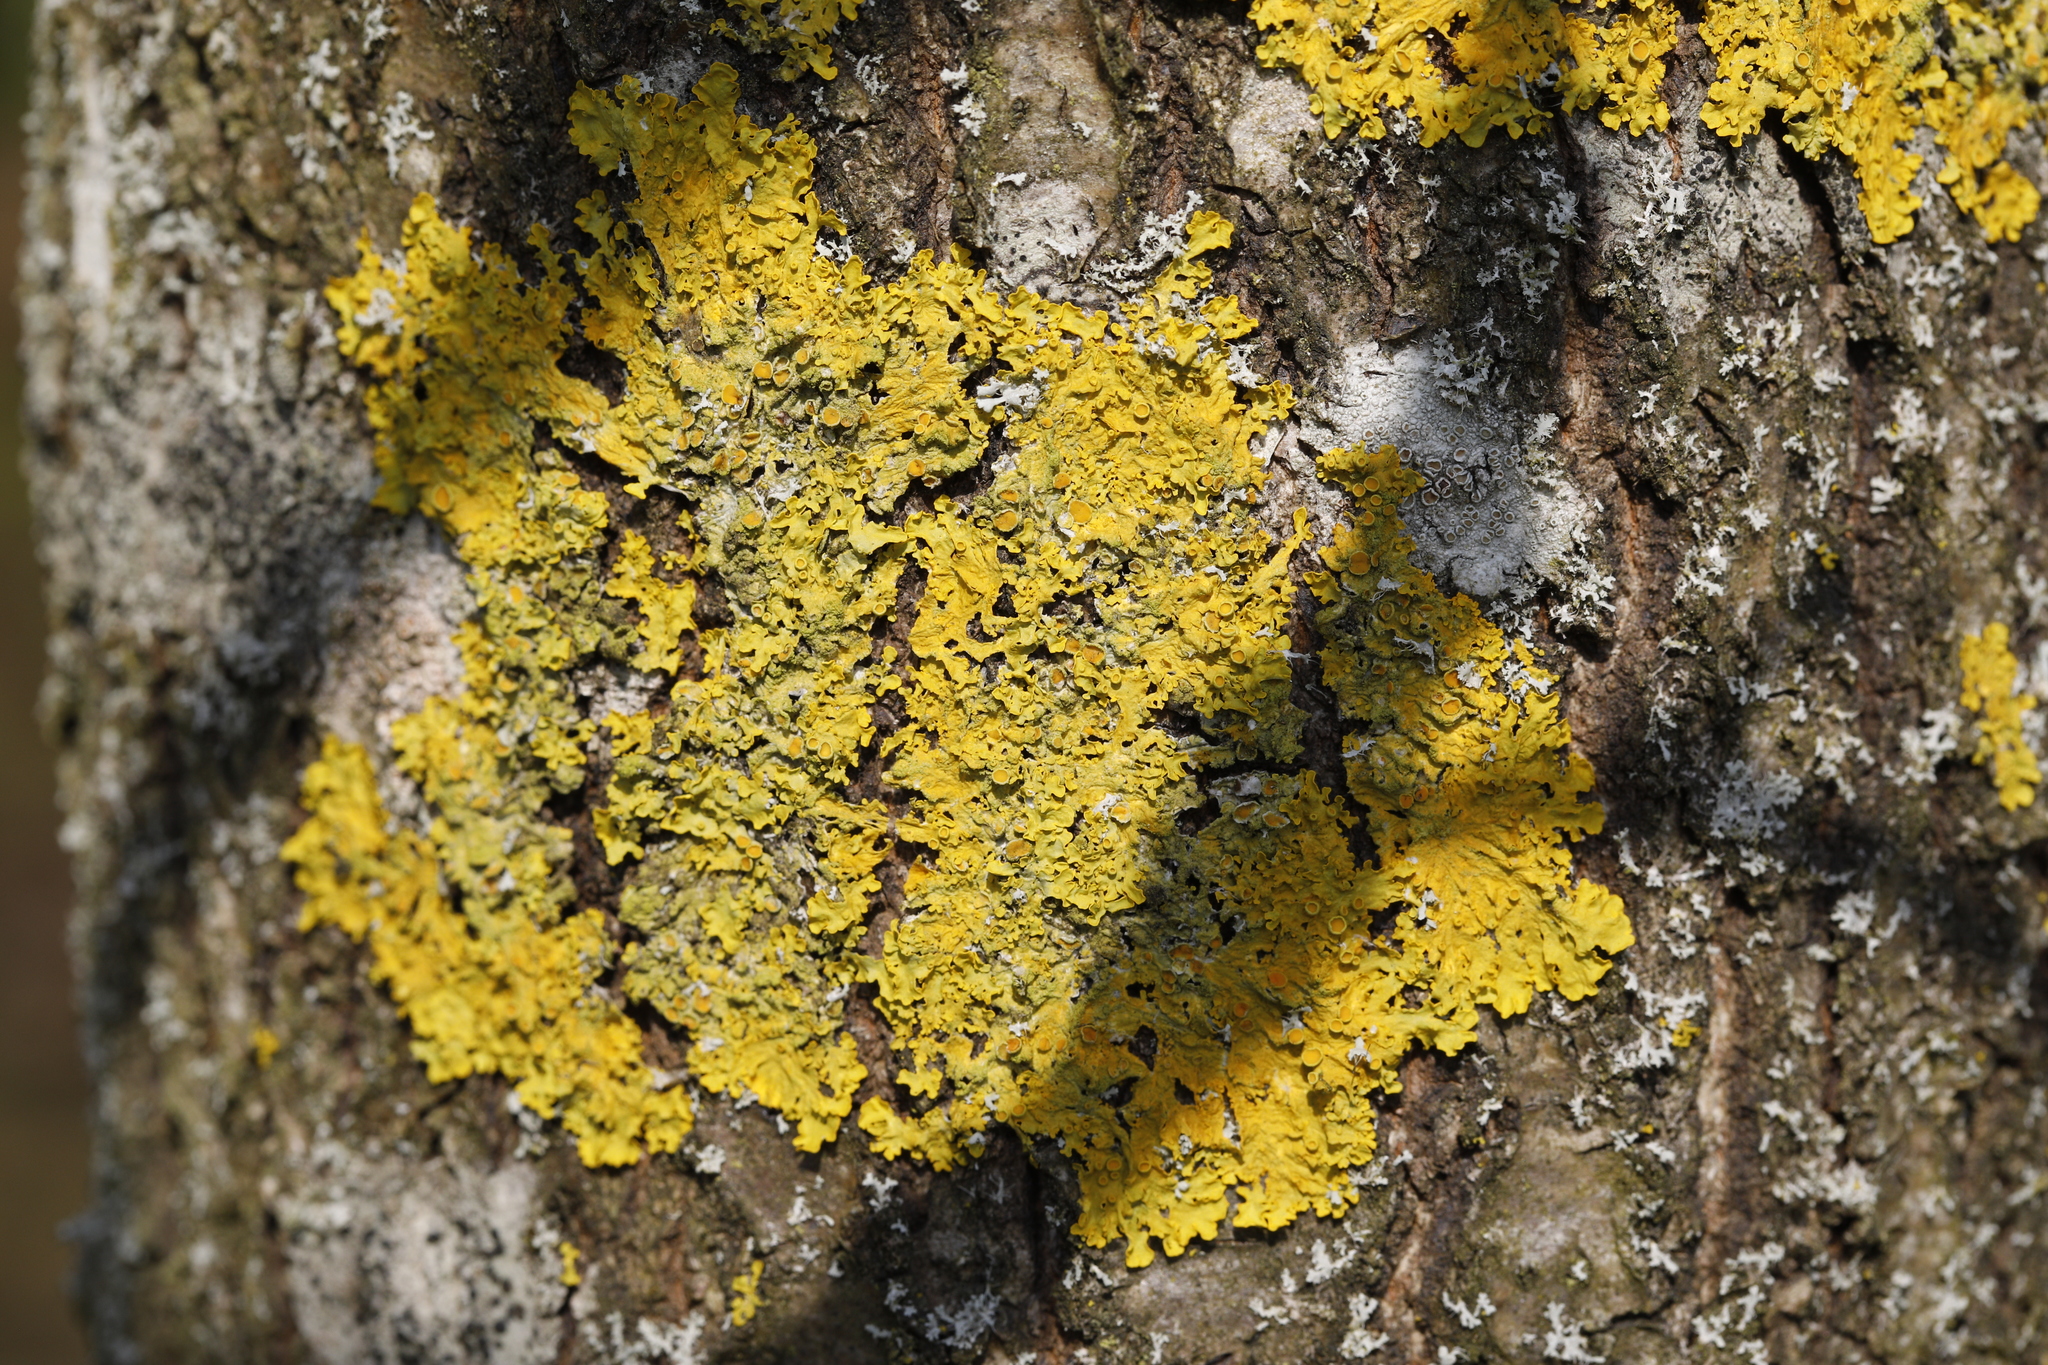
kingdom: Fungi
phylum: Ascomycota
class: Lecanoromycetes
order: Teloschistales
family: Teloschistaceae
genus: Xanthoria
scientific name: Xanthoria parietina
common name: Common orange lichen
